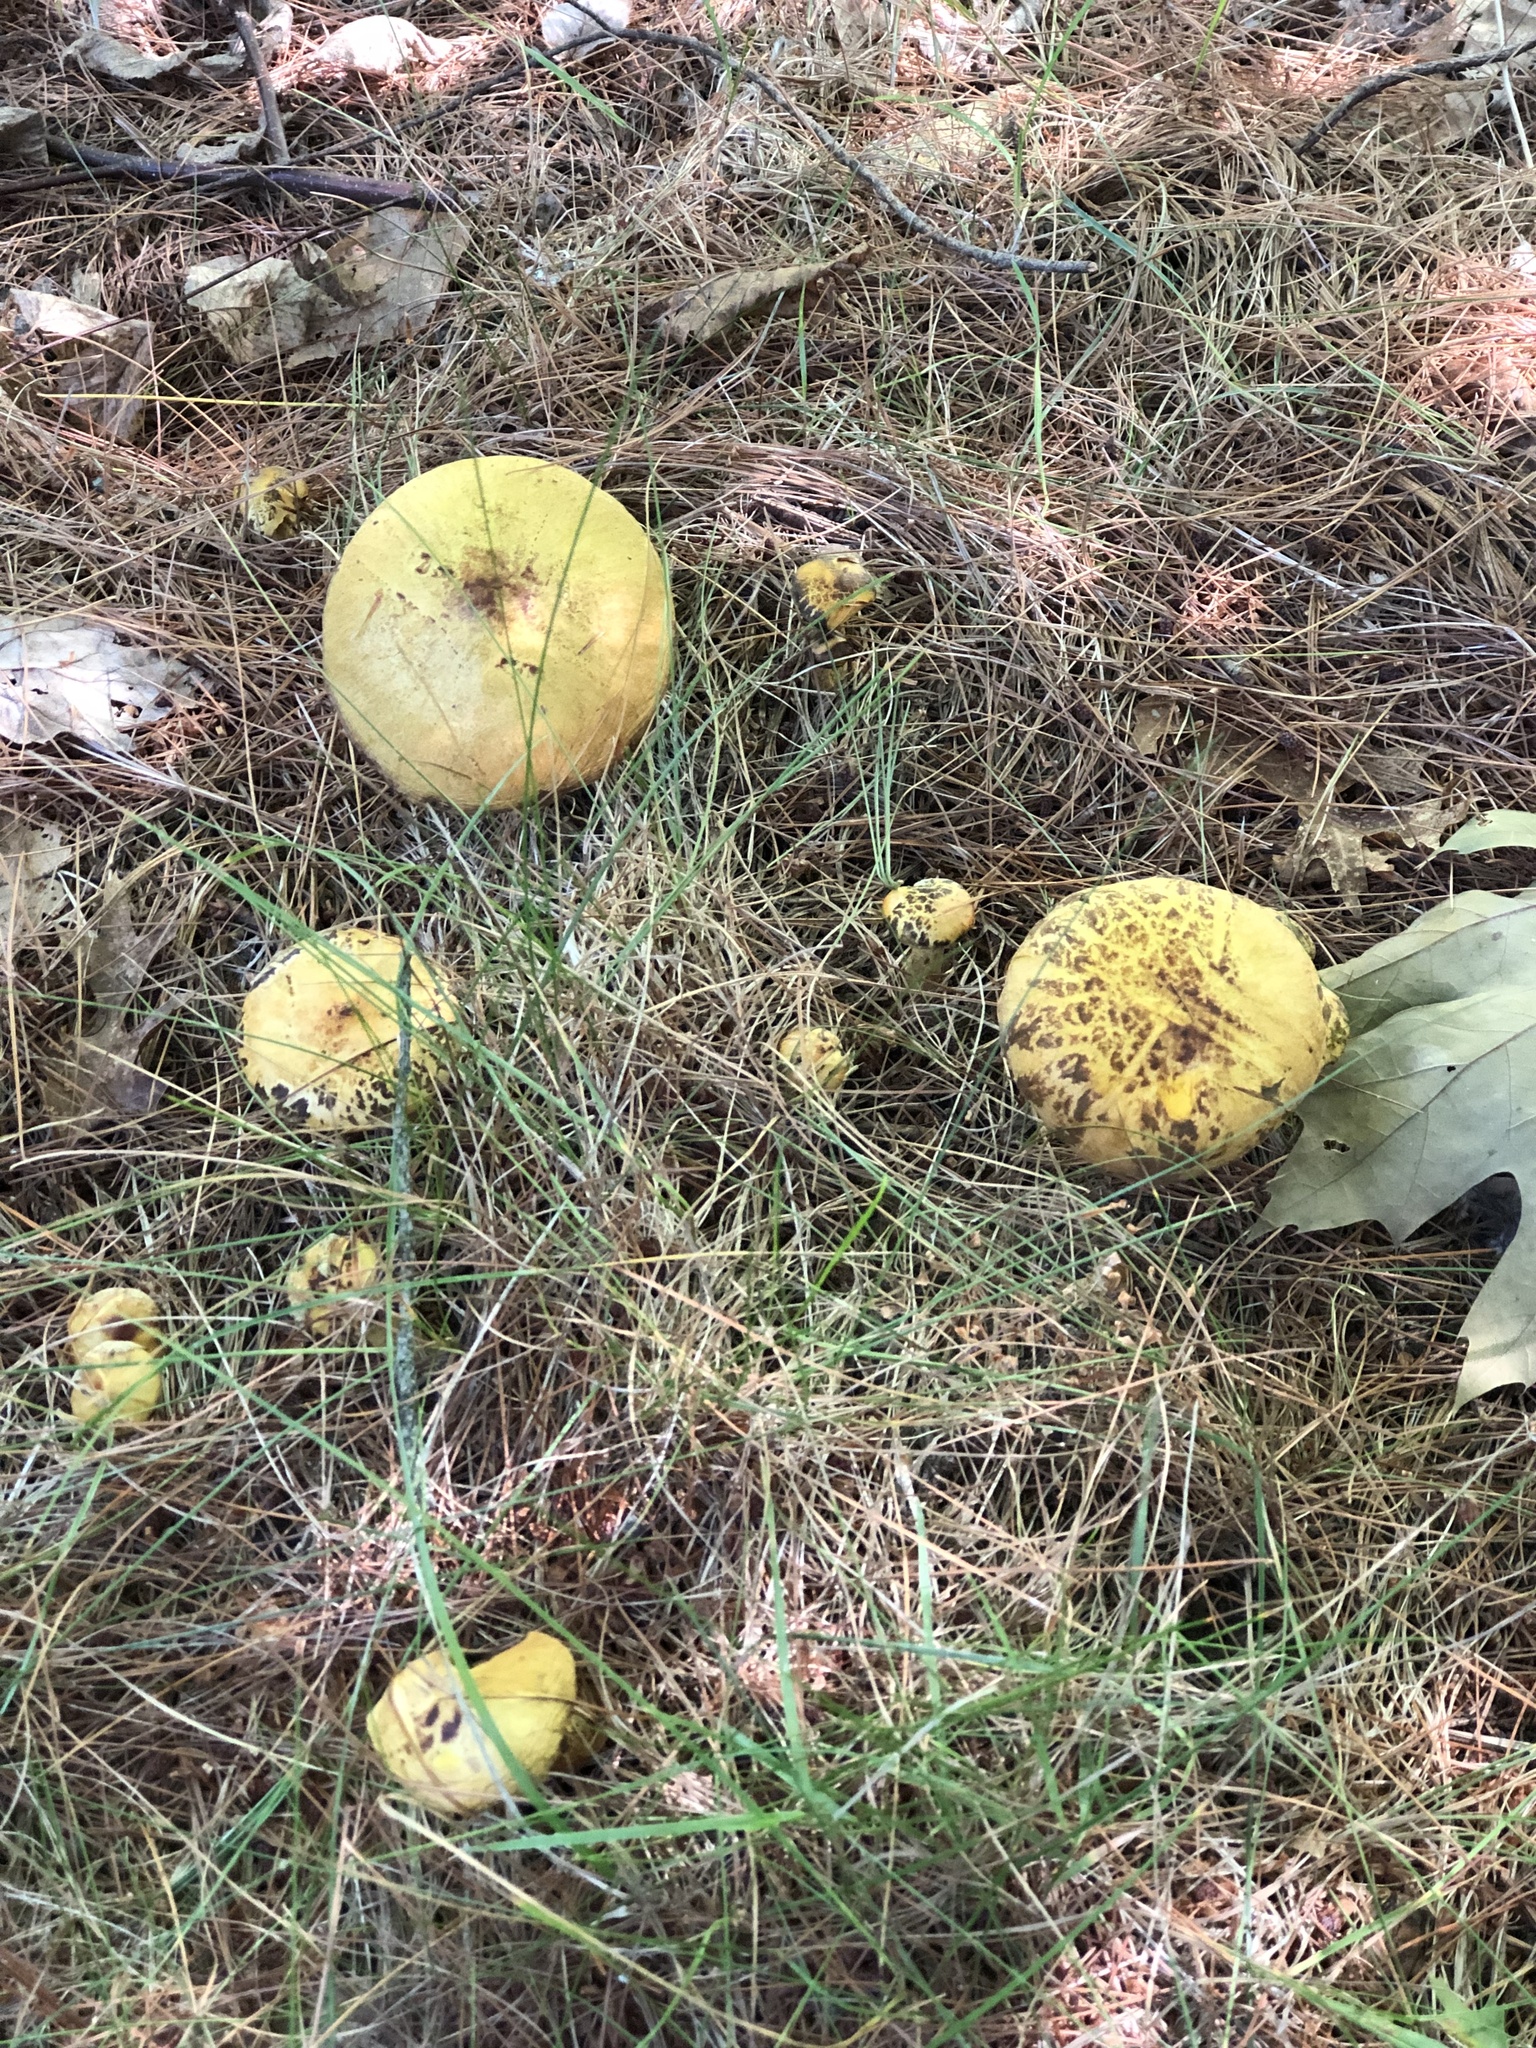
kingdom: Fungi
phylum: Basidiomycota
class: Agaricomycetes
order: Boletales
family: Suillaceae
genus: Suillus
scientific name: Suillus americanus
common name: Chicken fat mushroom
